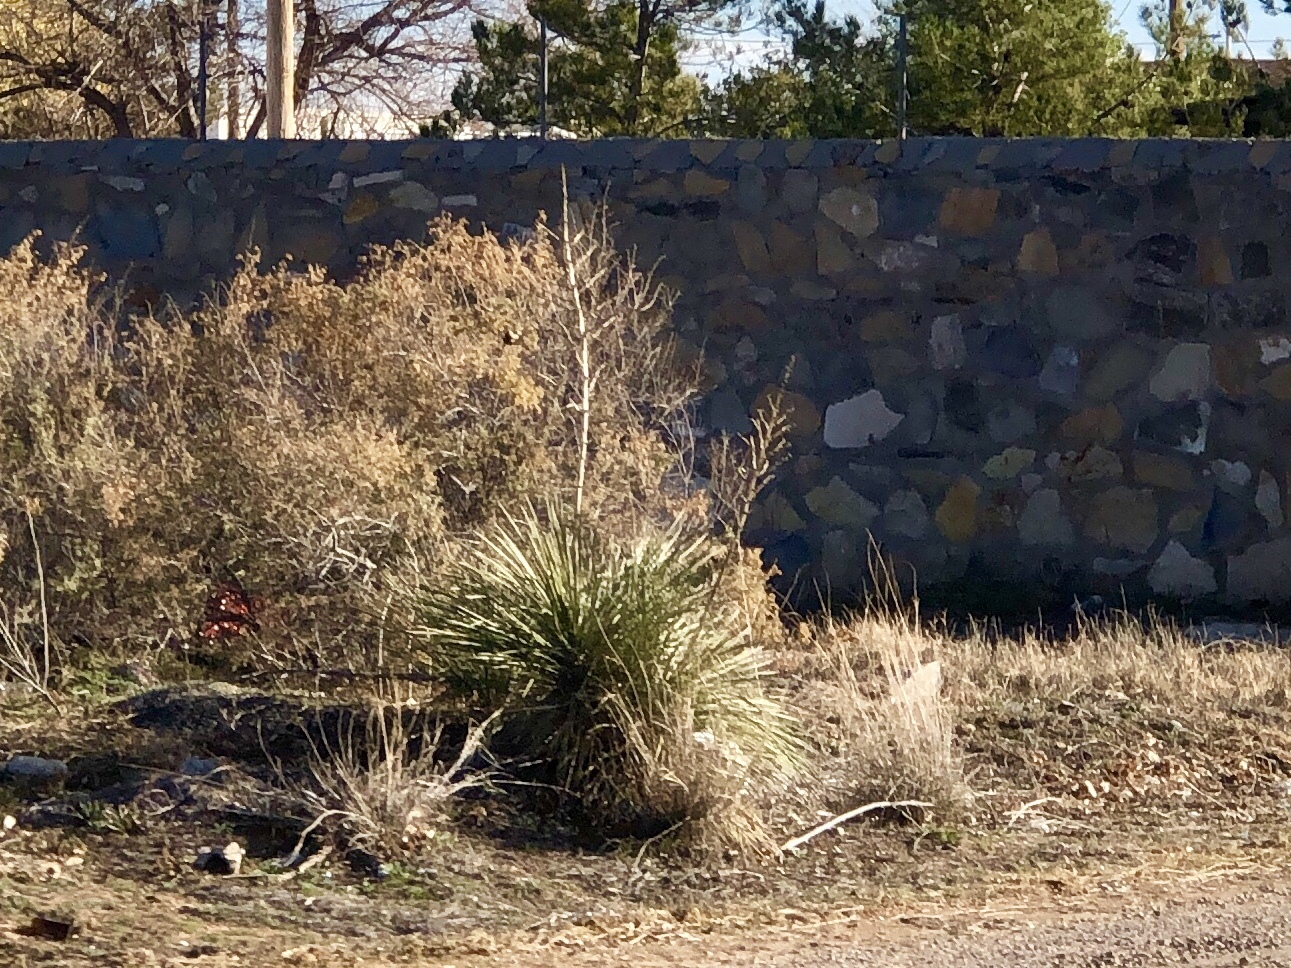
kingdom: Plantae
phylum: Tracheophyta
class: Liliopsida
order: Asparagales
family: Asparagaceae
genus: Yucca
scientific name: Yucca elata
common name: Palmella
